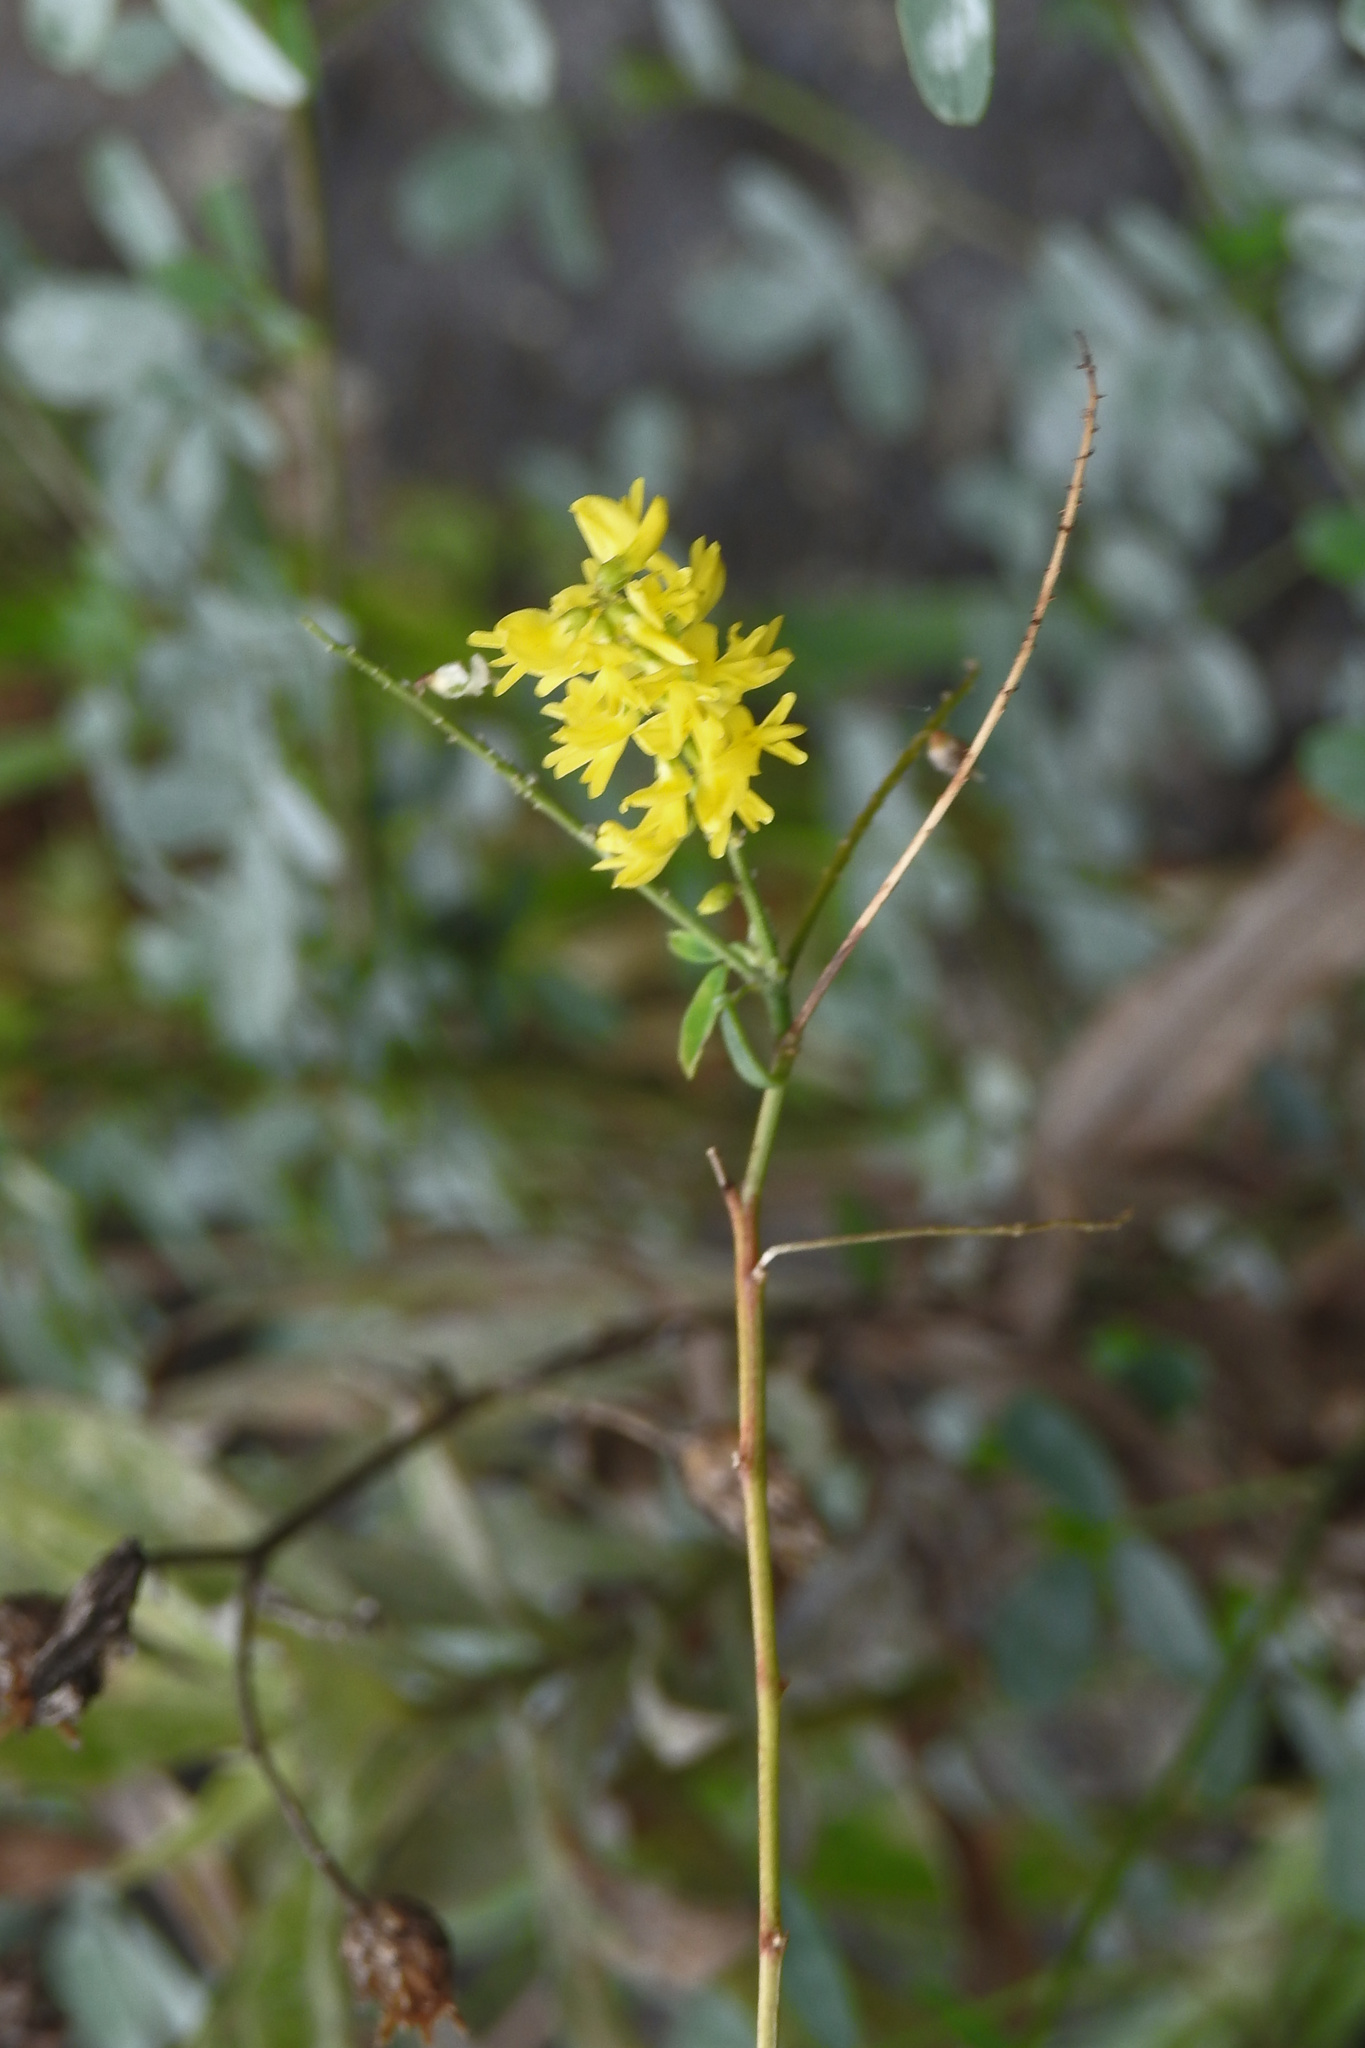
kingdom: Plantae
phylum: Tracheophyta
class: Magnoliopsida
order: Fabales
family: Fabaceae
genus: Melilotus
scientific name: Melilotus officinalis
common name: Sweetclover
